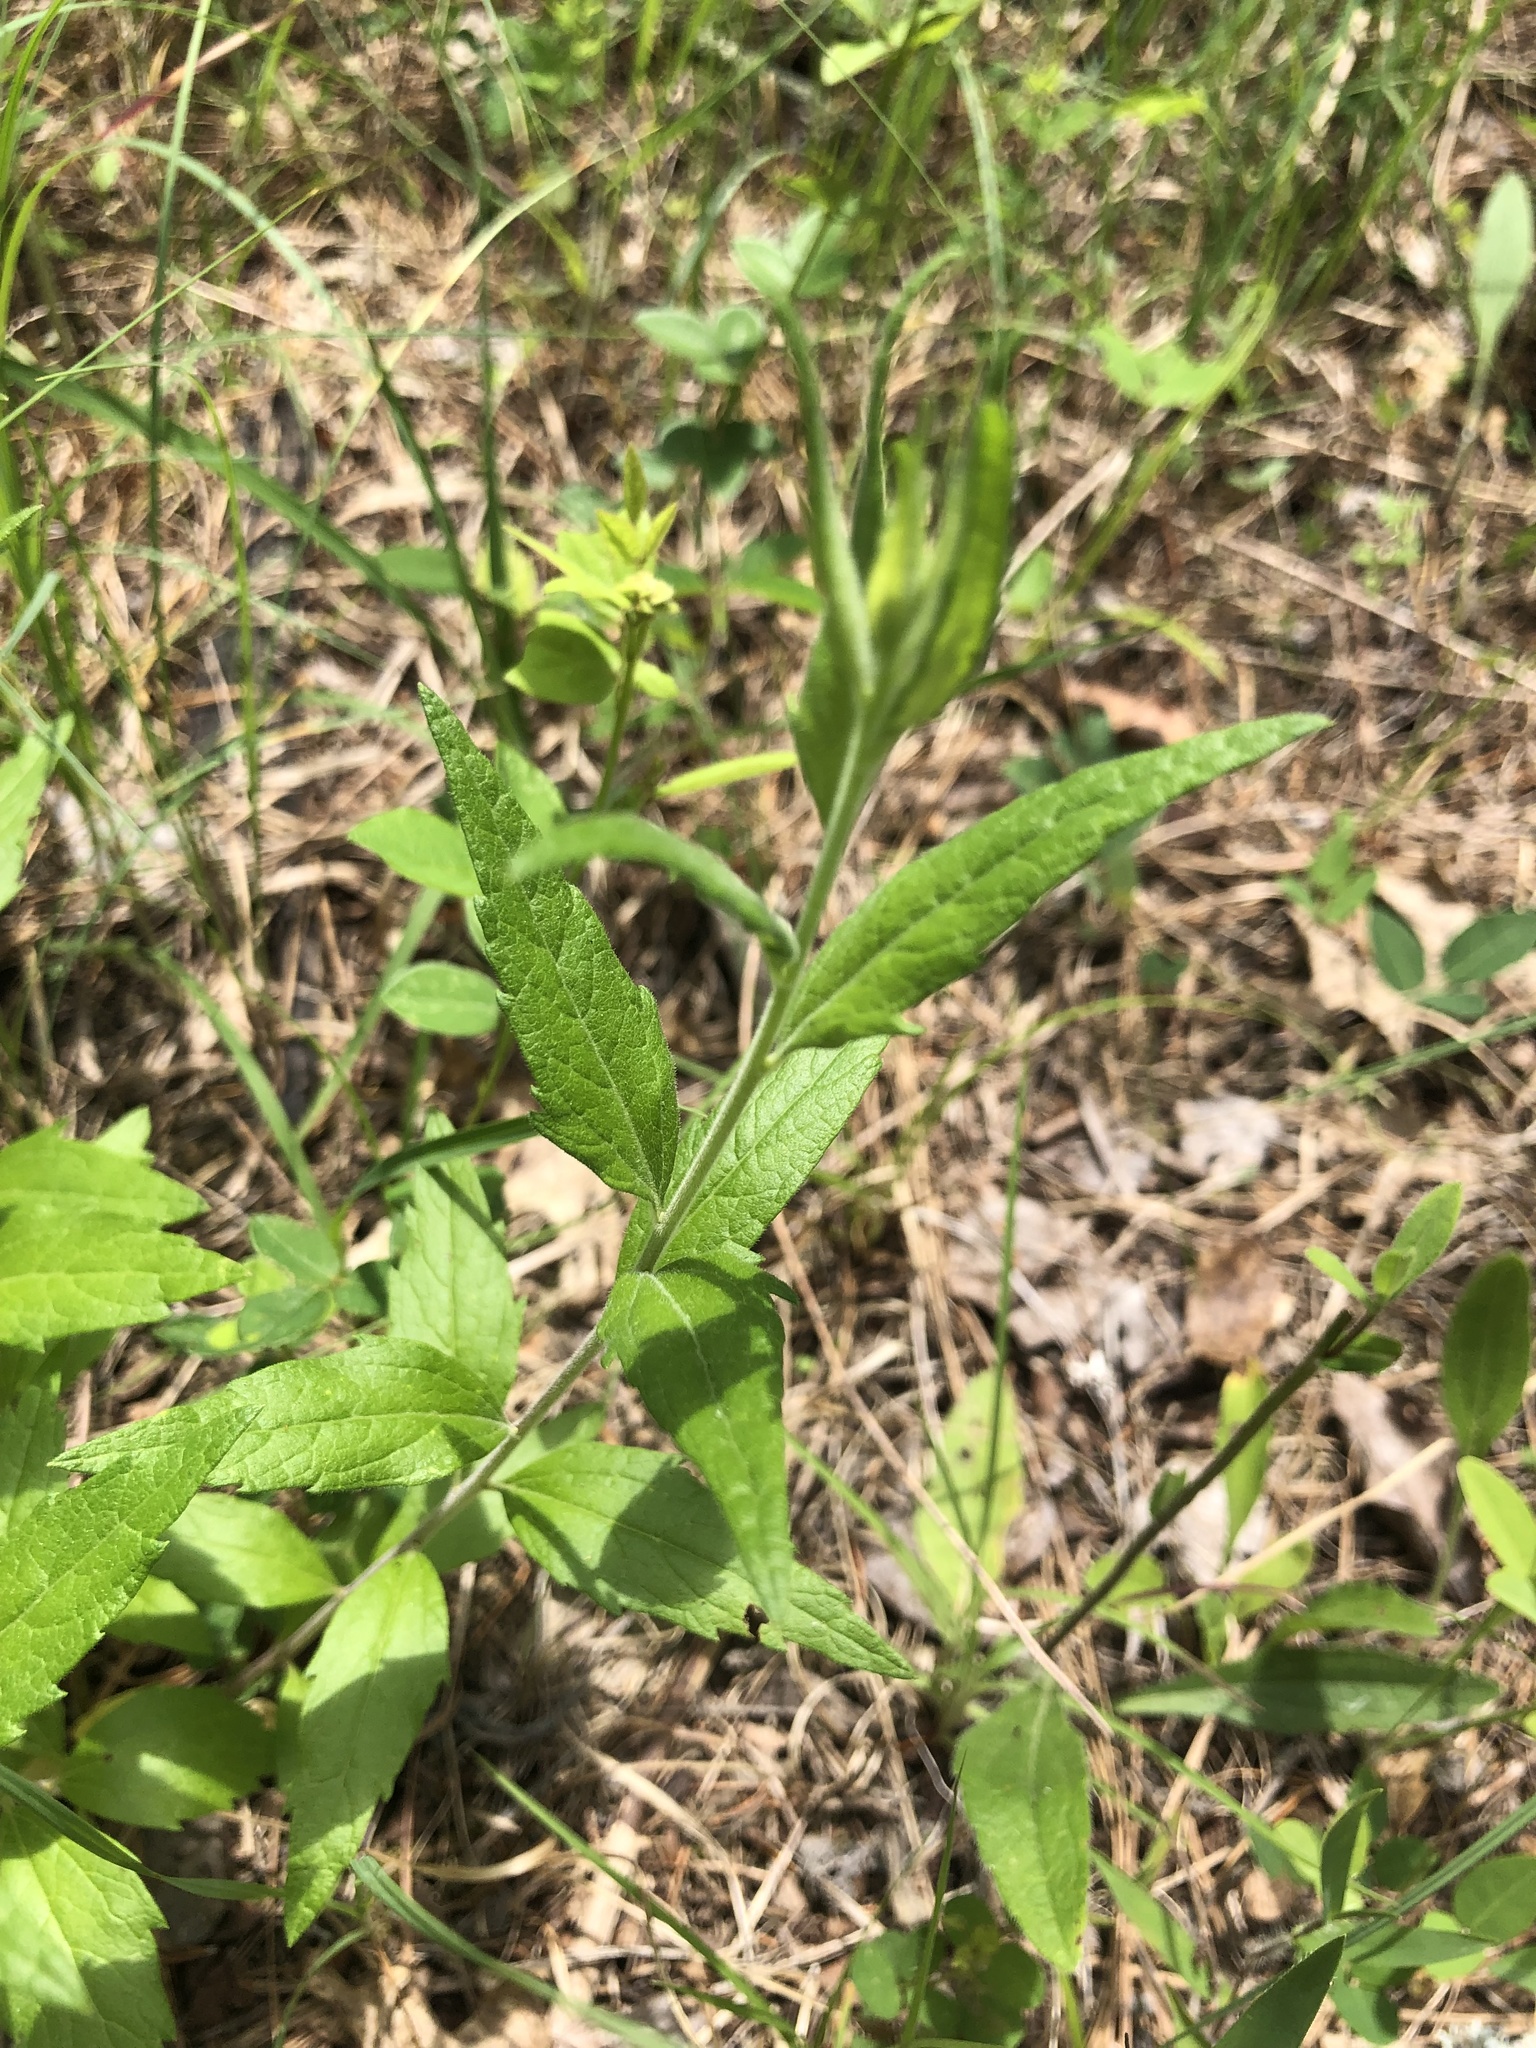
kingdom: Plantae
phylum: Tracheophyta
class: Magnoliopsida
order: Asterales
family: Asteraceae
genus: Brickellia
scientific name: Brickellia eupatorioides
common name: False boneset
